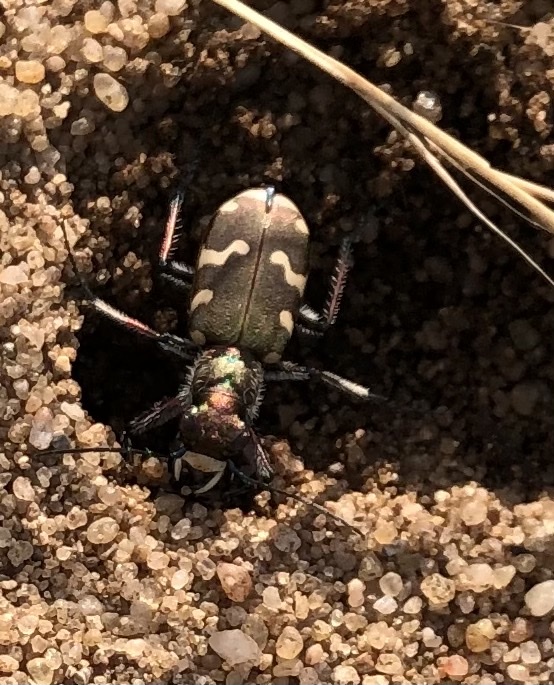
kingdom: Animalia
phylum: Arthropoda
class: Insecta
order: Coleoptera
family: Carabidae
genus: Cicindela
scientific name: Cicindela hybrida
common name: Northern dune tiger beetle
